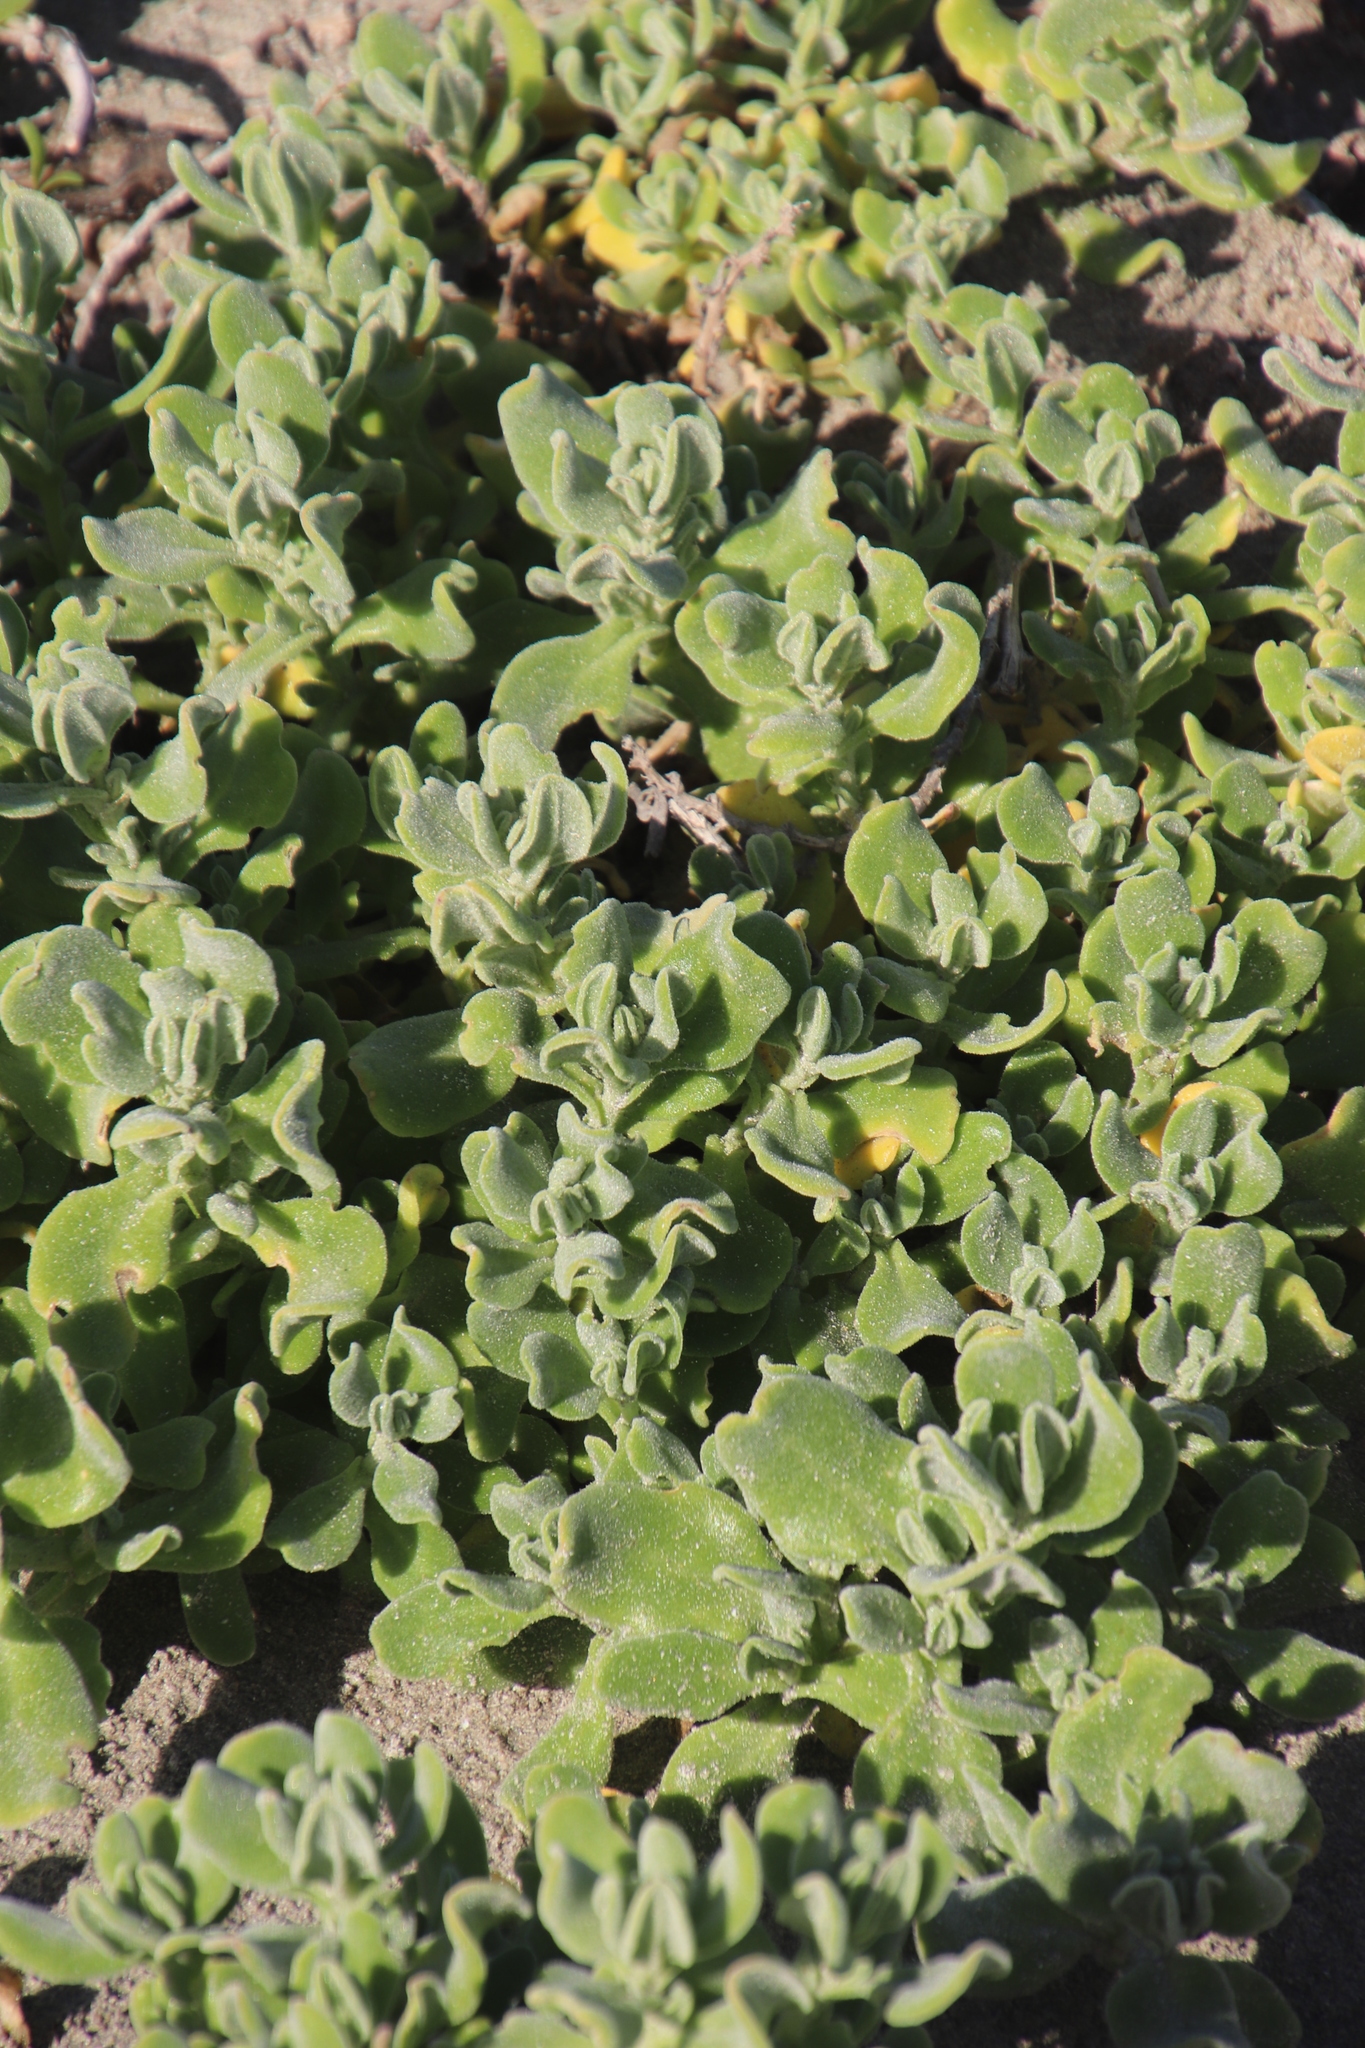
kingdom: Plantae
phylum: Tracheophyta
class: Magnoliopsida
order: Caryophyllales
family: Aizoaceae
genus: Tetragonia
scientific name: Tetragonia decumbens
